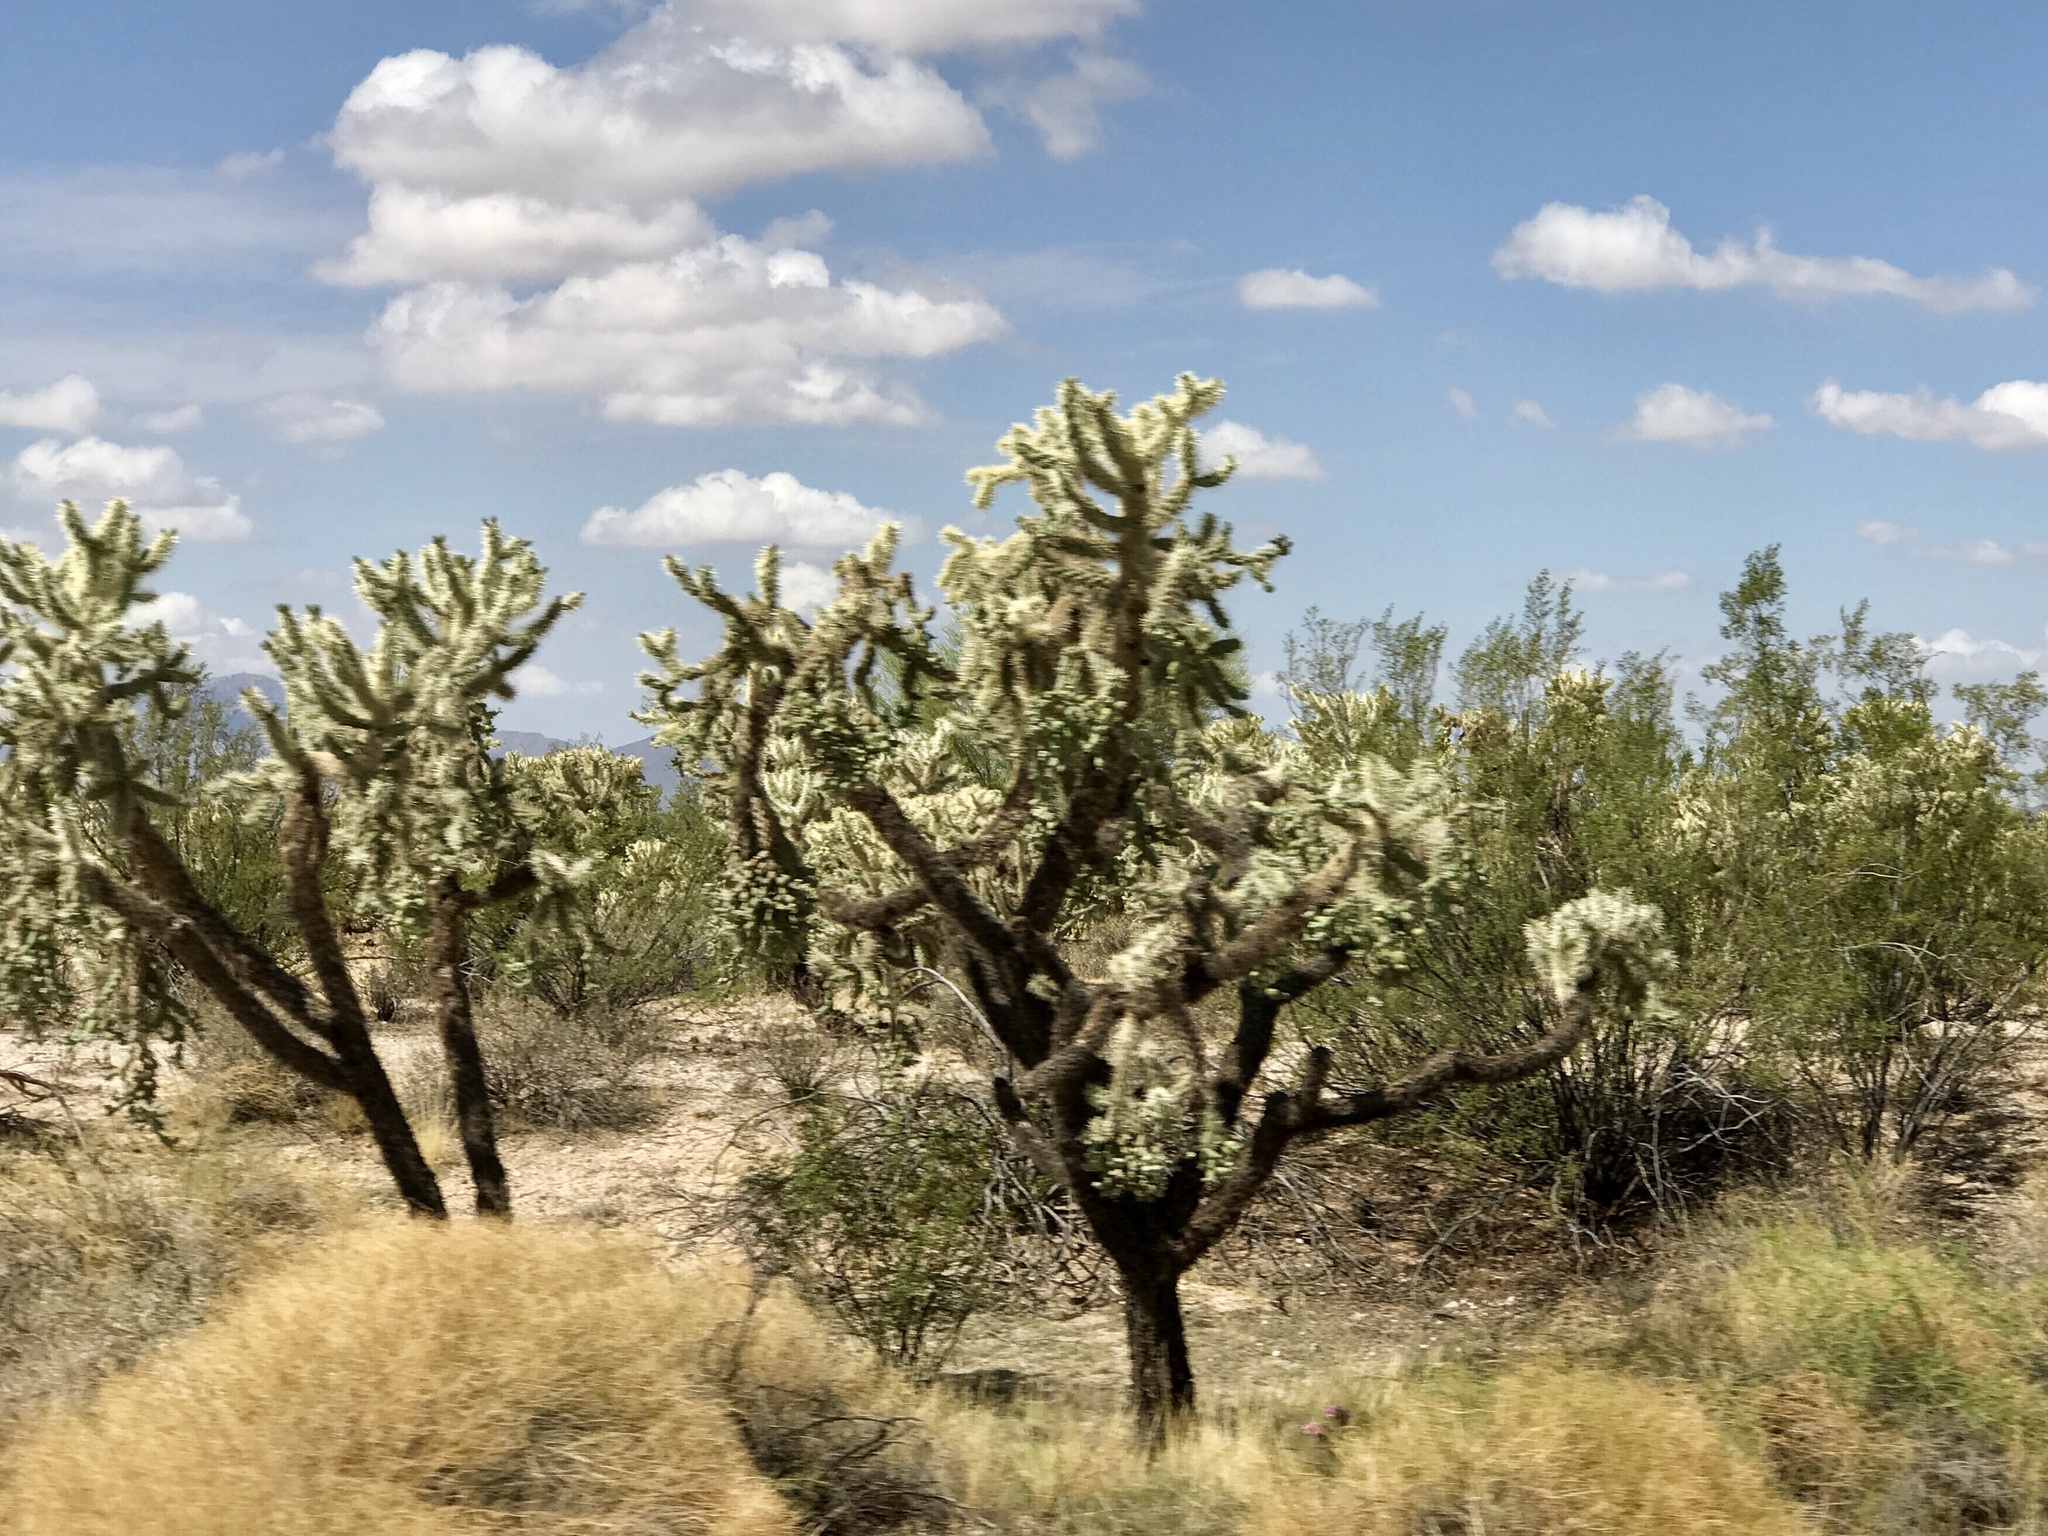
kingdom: Plantae
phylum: Tracheophyta
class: Magnoliopsida
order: Caryophyllales
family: Cactaceae
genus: Cylindropuntia
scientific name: Cylindropuntia fulgida
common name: Jumping cholla
